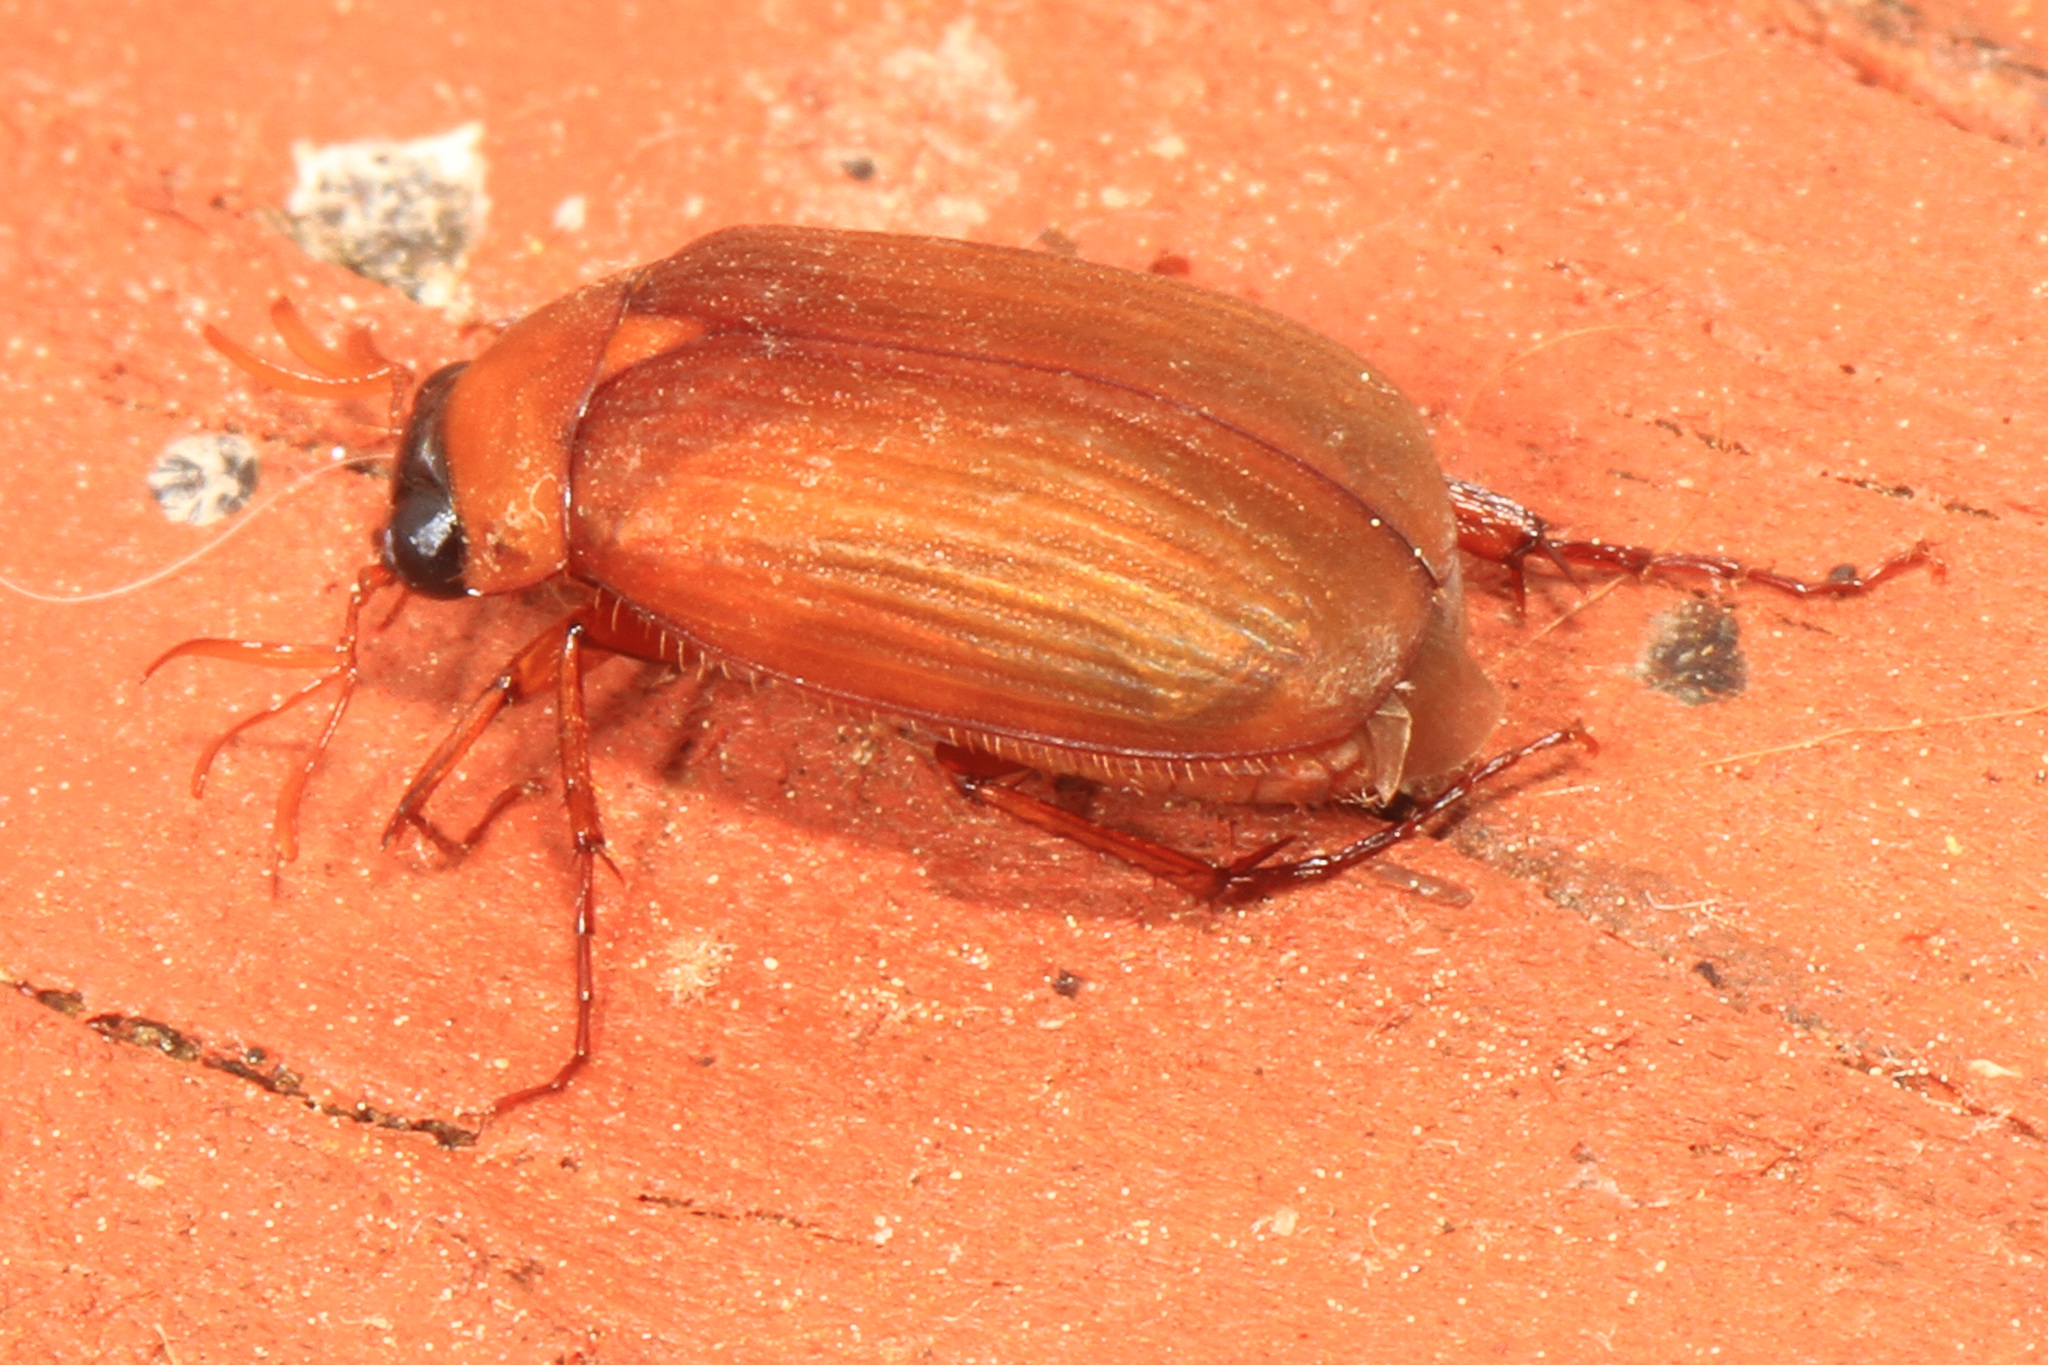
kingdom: Animalia
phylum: Arthropoda
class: Insecta
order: Coleoptera
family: Scarabaeidae
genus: Nipponoserica
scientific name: Nipponoserica peregrina
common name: Scarab beetle
